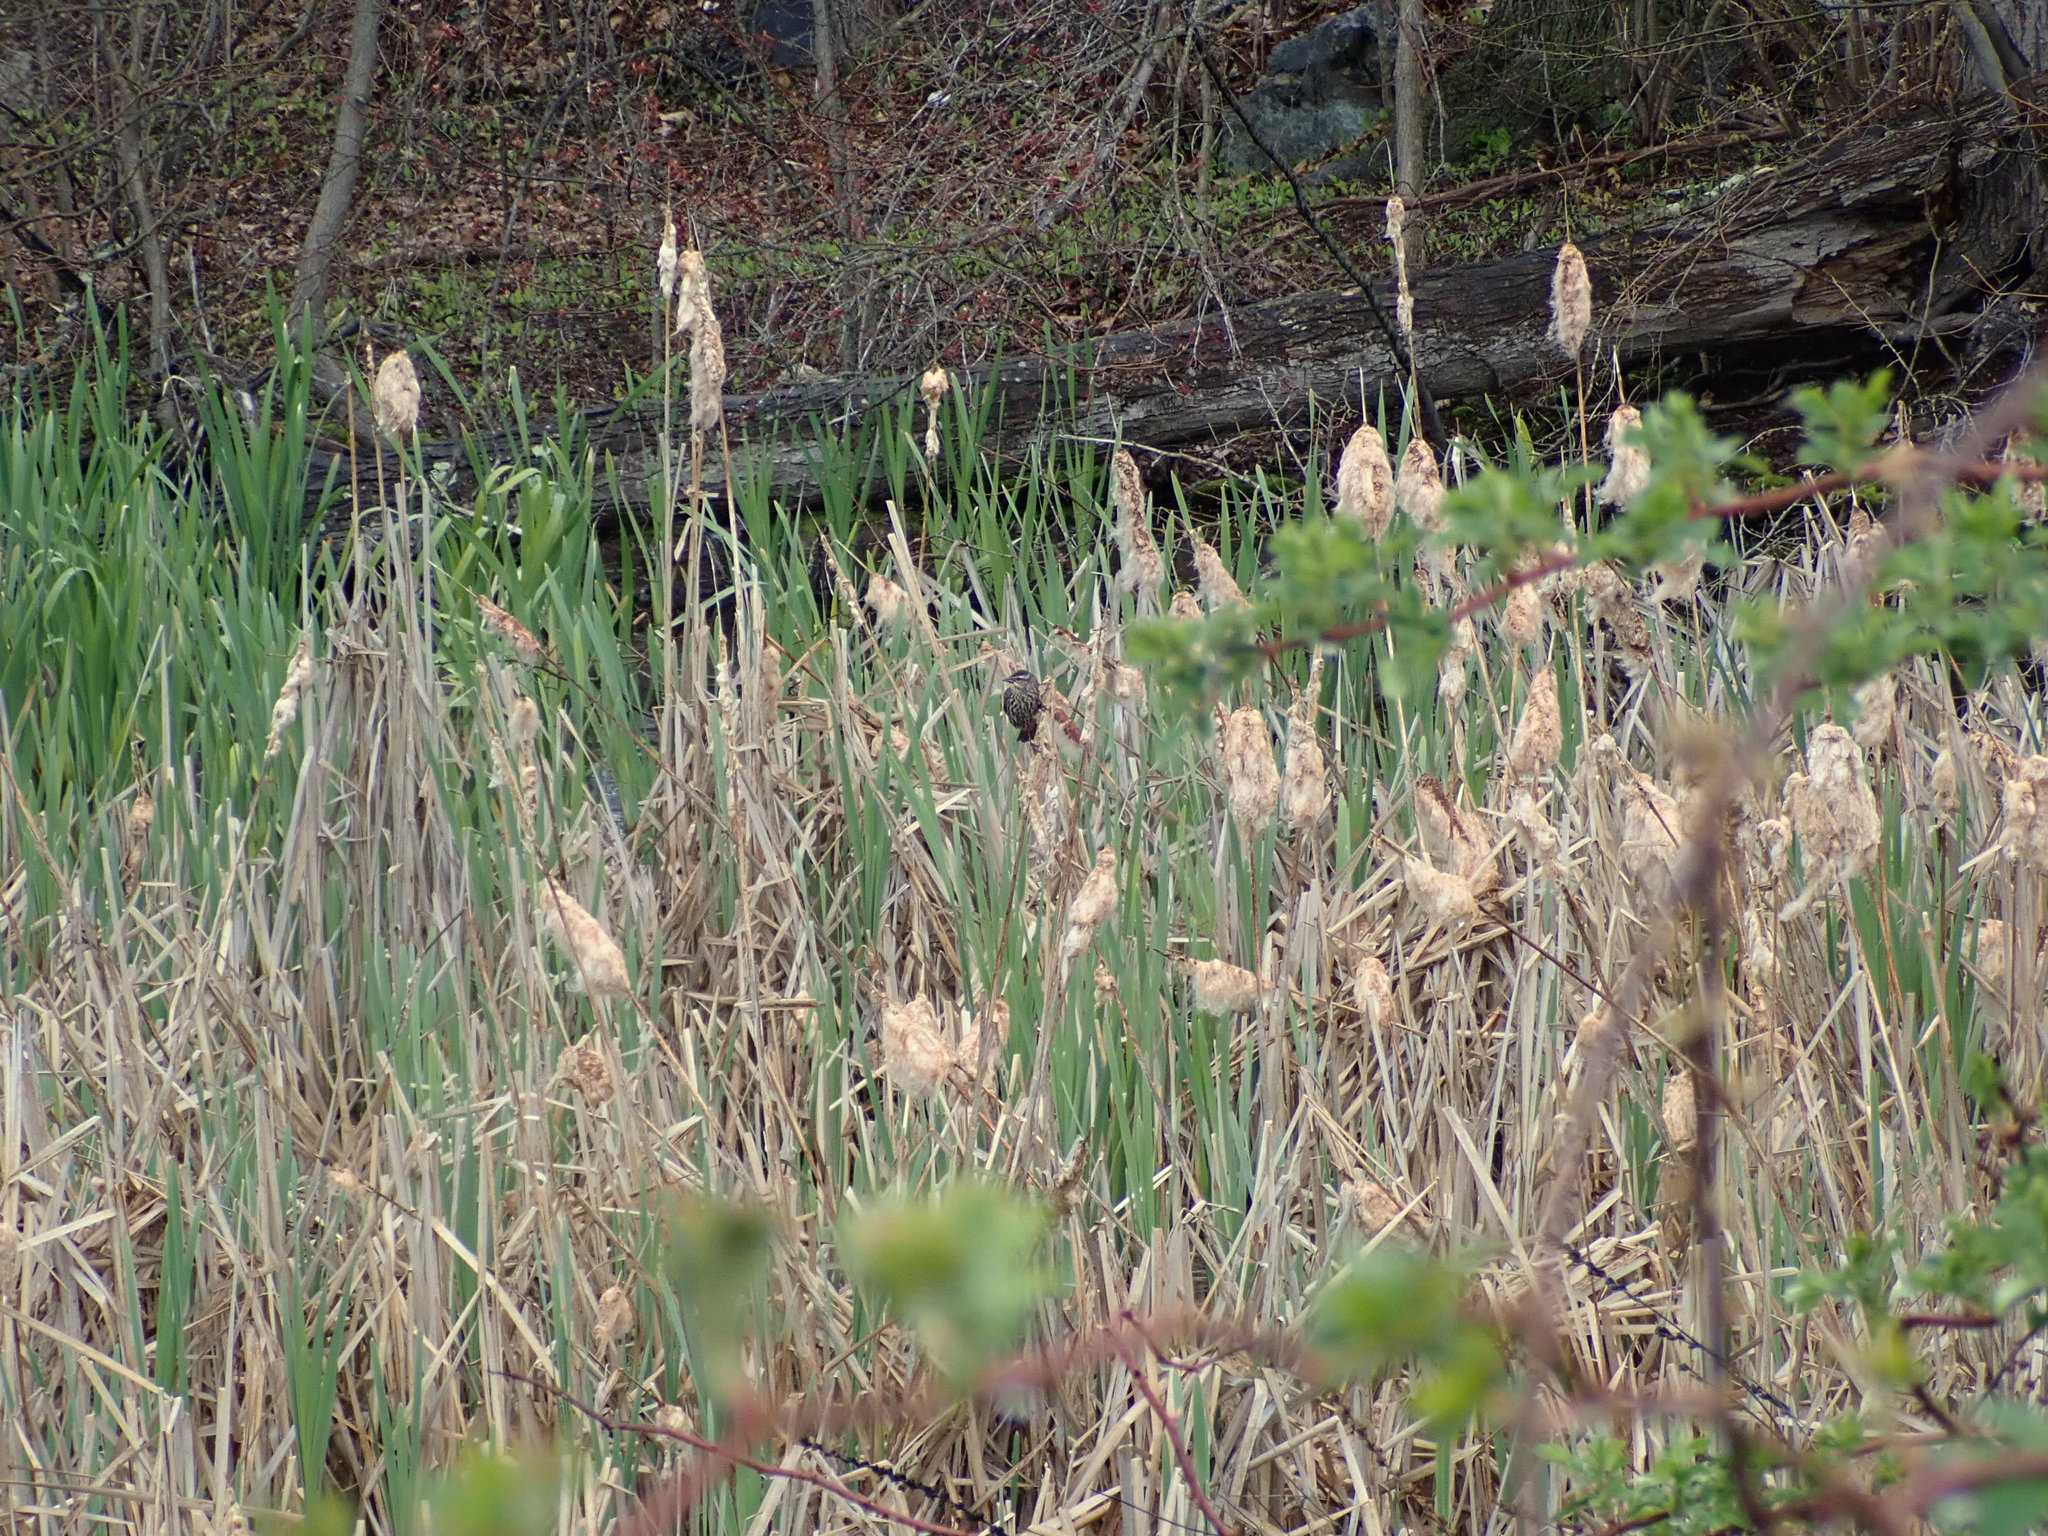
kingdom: Animalia
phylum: Chordata
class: Aves
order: Passeriformes
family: Icteridae
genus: Agelaius
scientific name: Agelaius phoeniceus
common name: Red-winged blackbird
